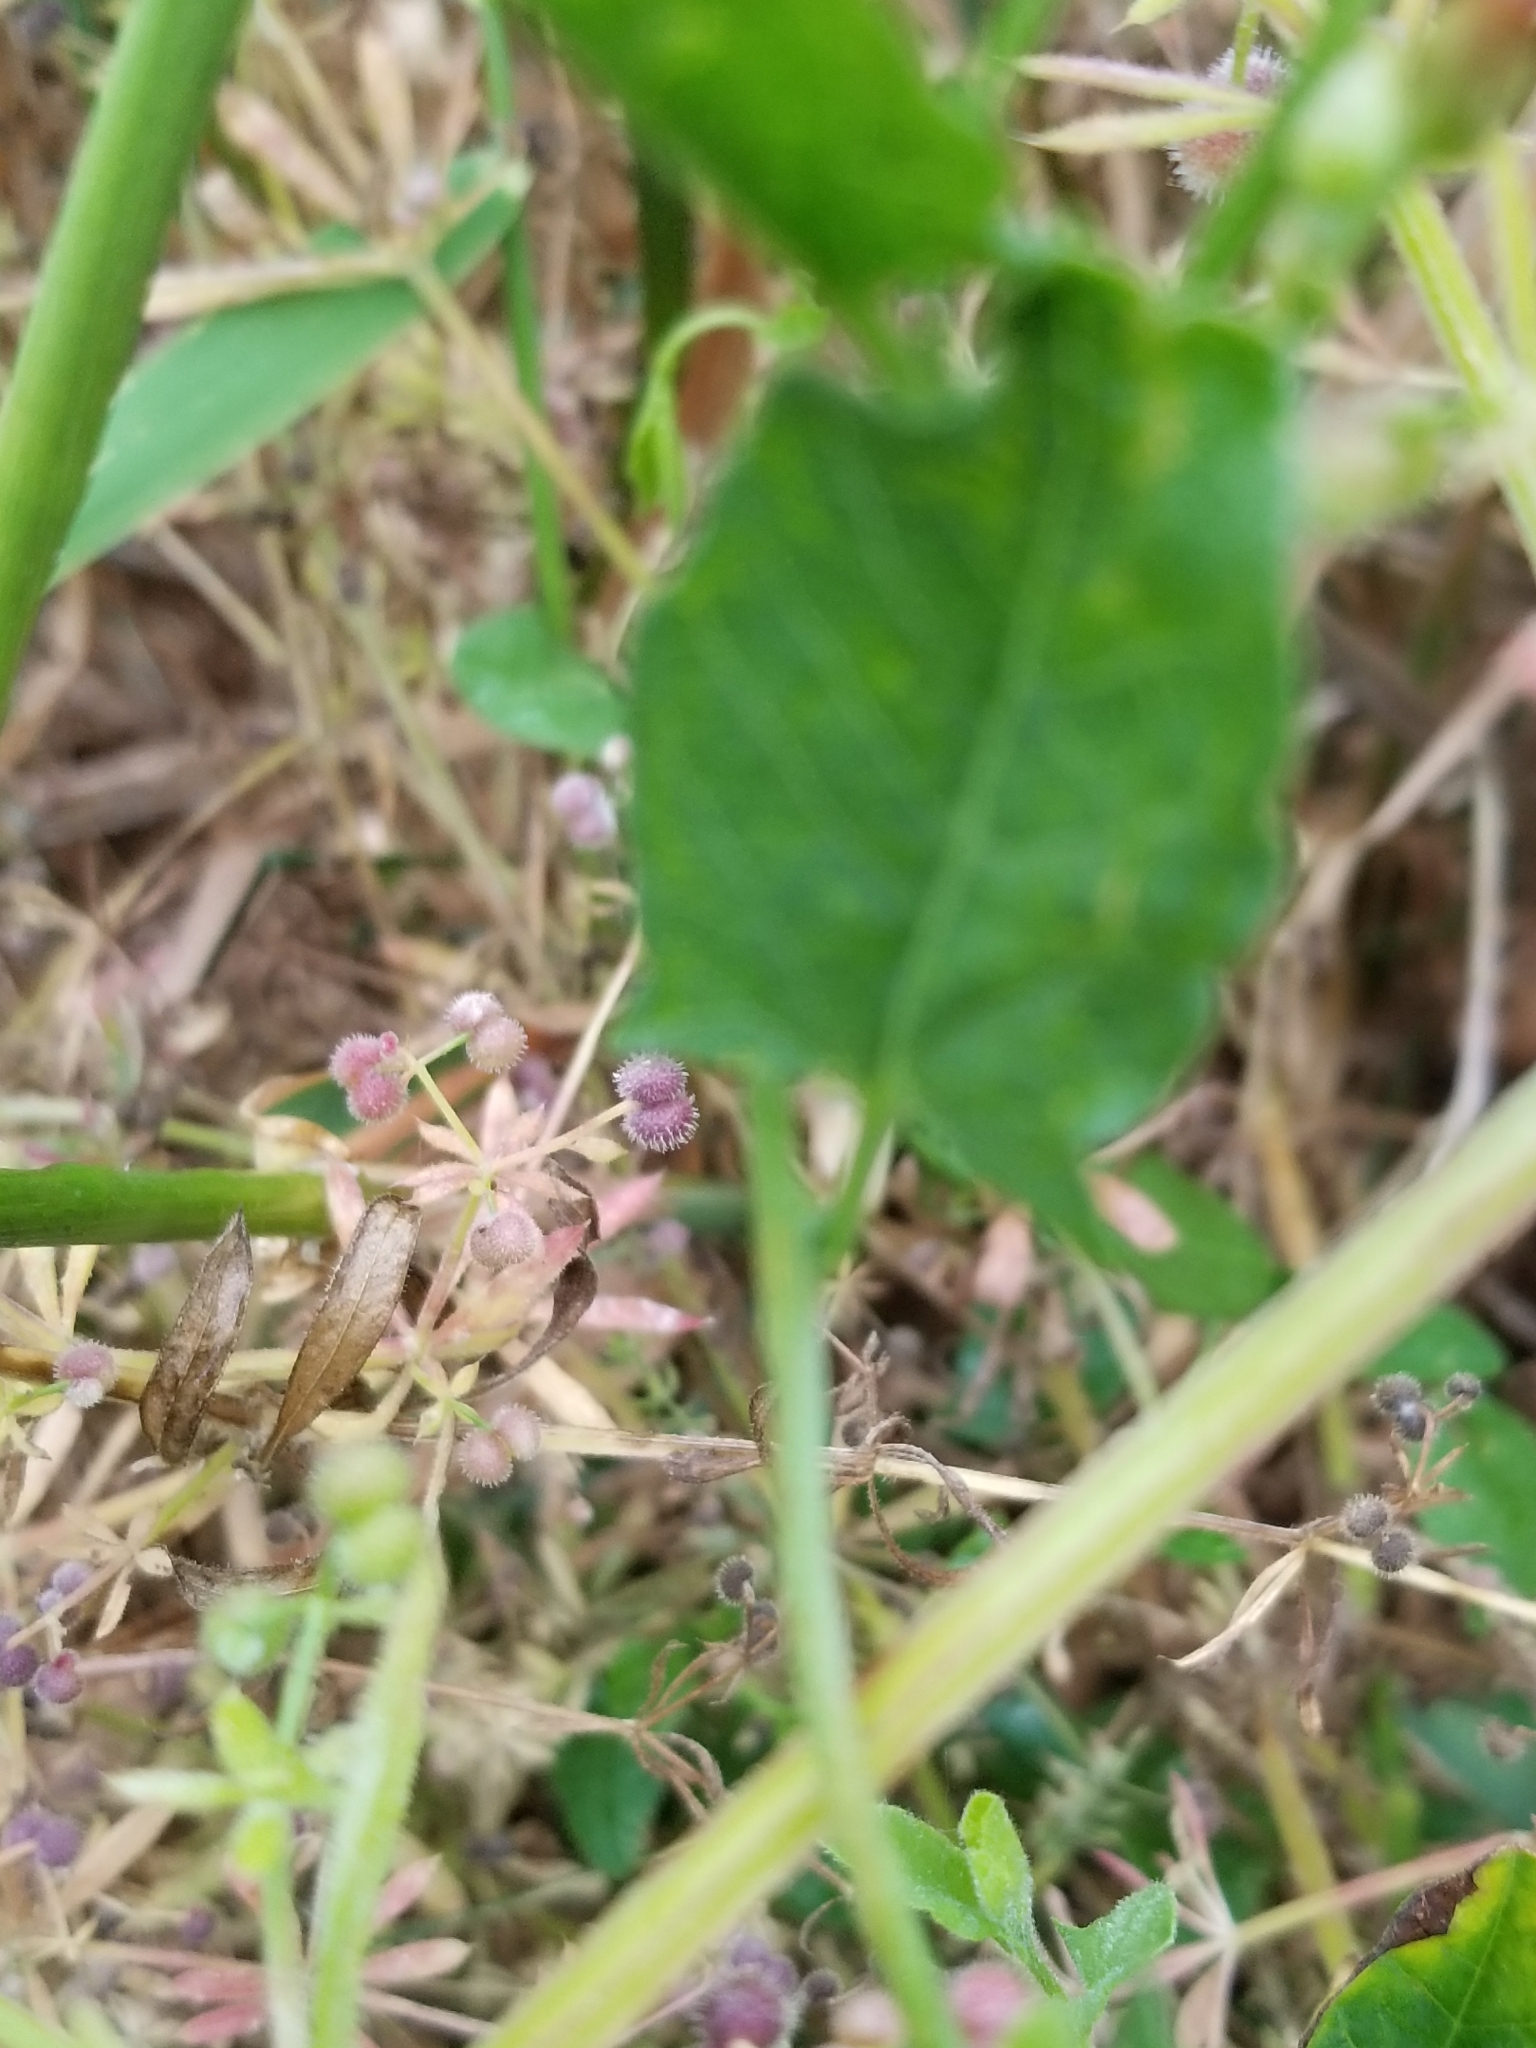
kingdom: Plantae
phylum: Tracheophyta
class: Magnoliopsida
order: Solanales
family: Convolvulaceae
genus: Convolvulus
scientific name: Convolvulus arvensis
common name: Field bindweed
